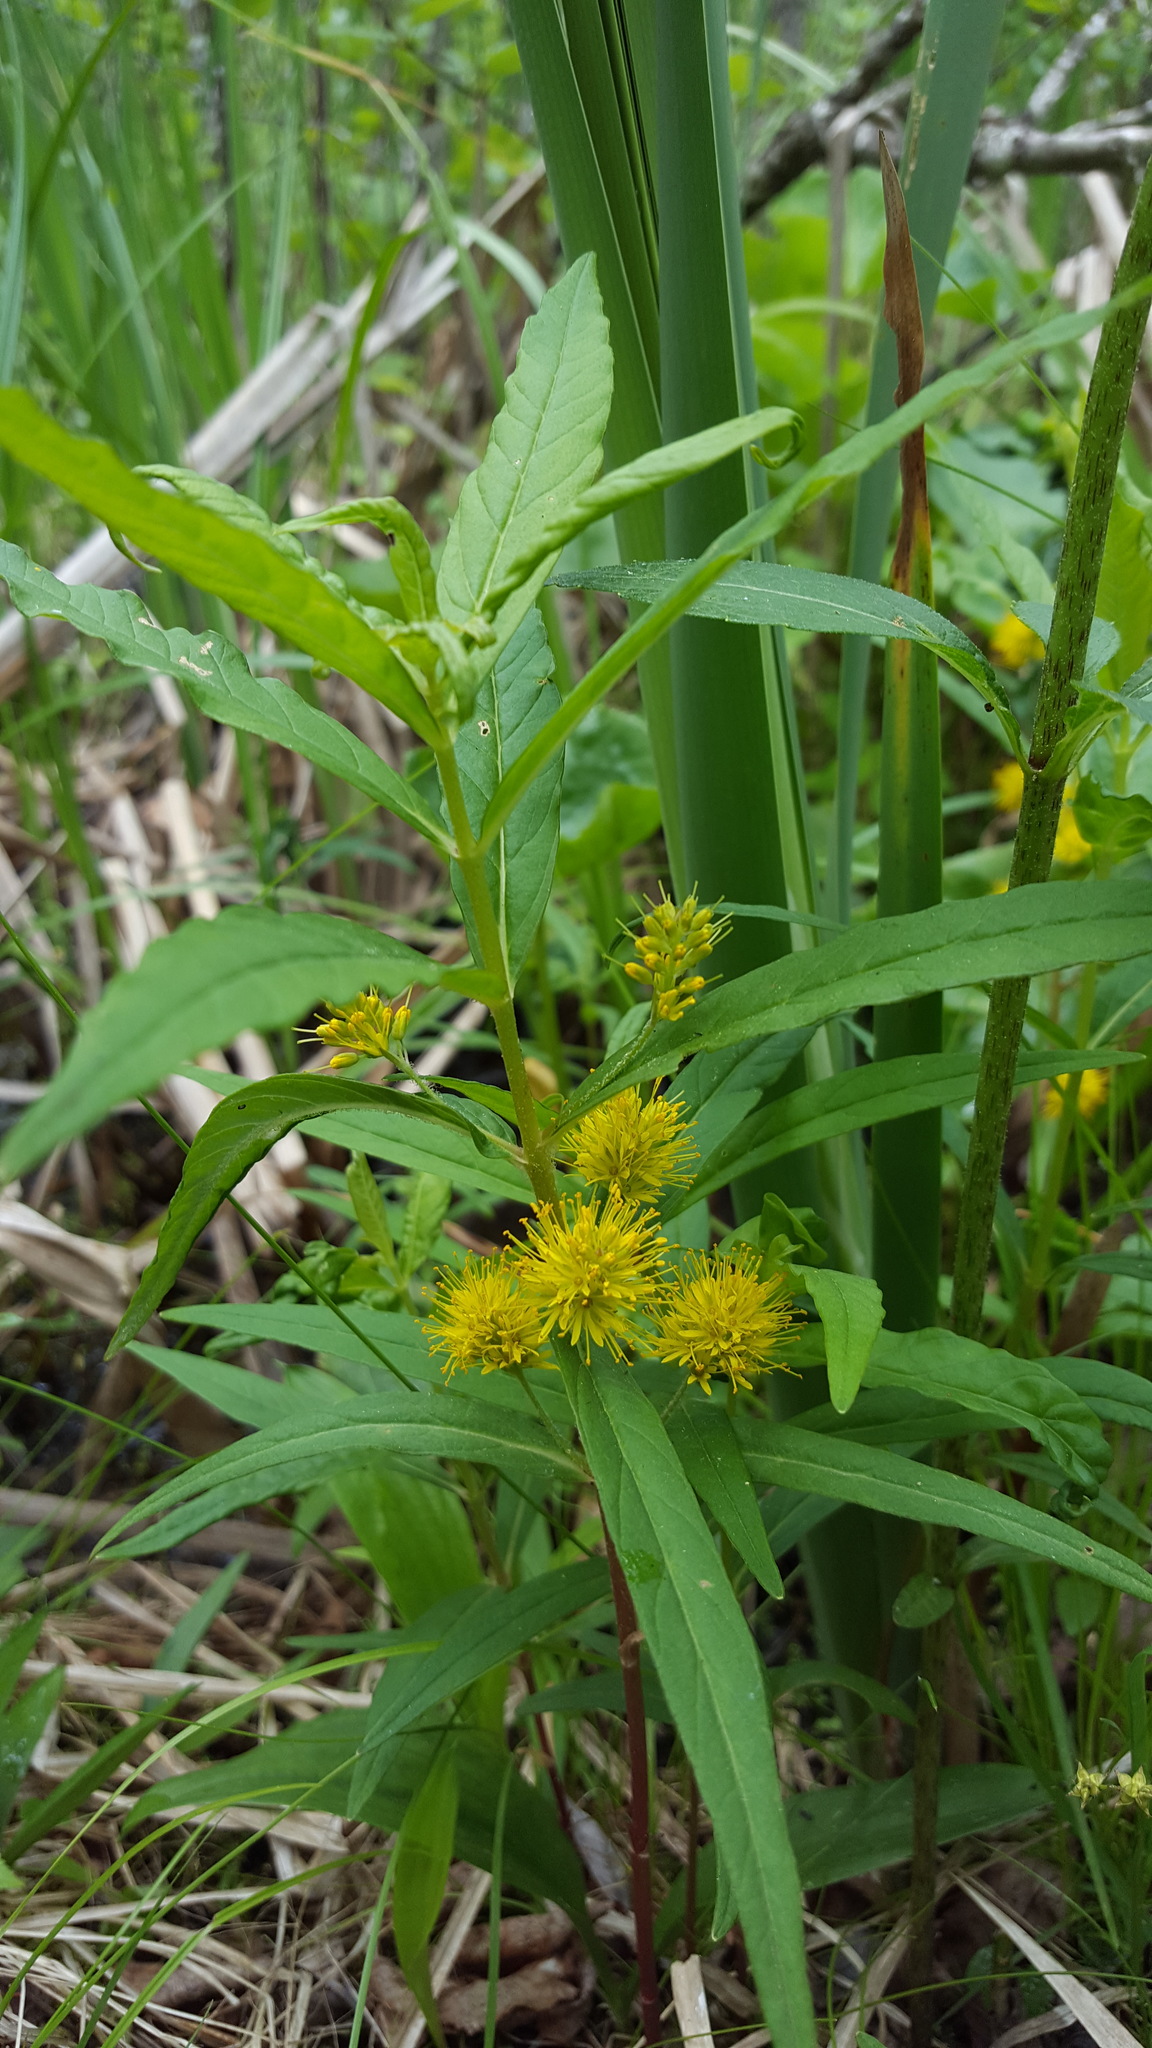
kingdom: Plantae
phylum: Tracheophyta
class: Magnoliopsida
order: Ericales
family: Primulaceae
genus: Lysimachia
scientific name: Lysimachia thyrsiflora
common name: Tufted loosestrife
